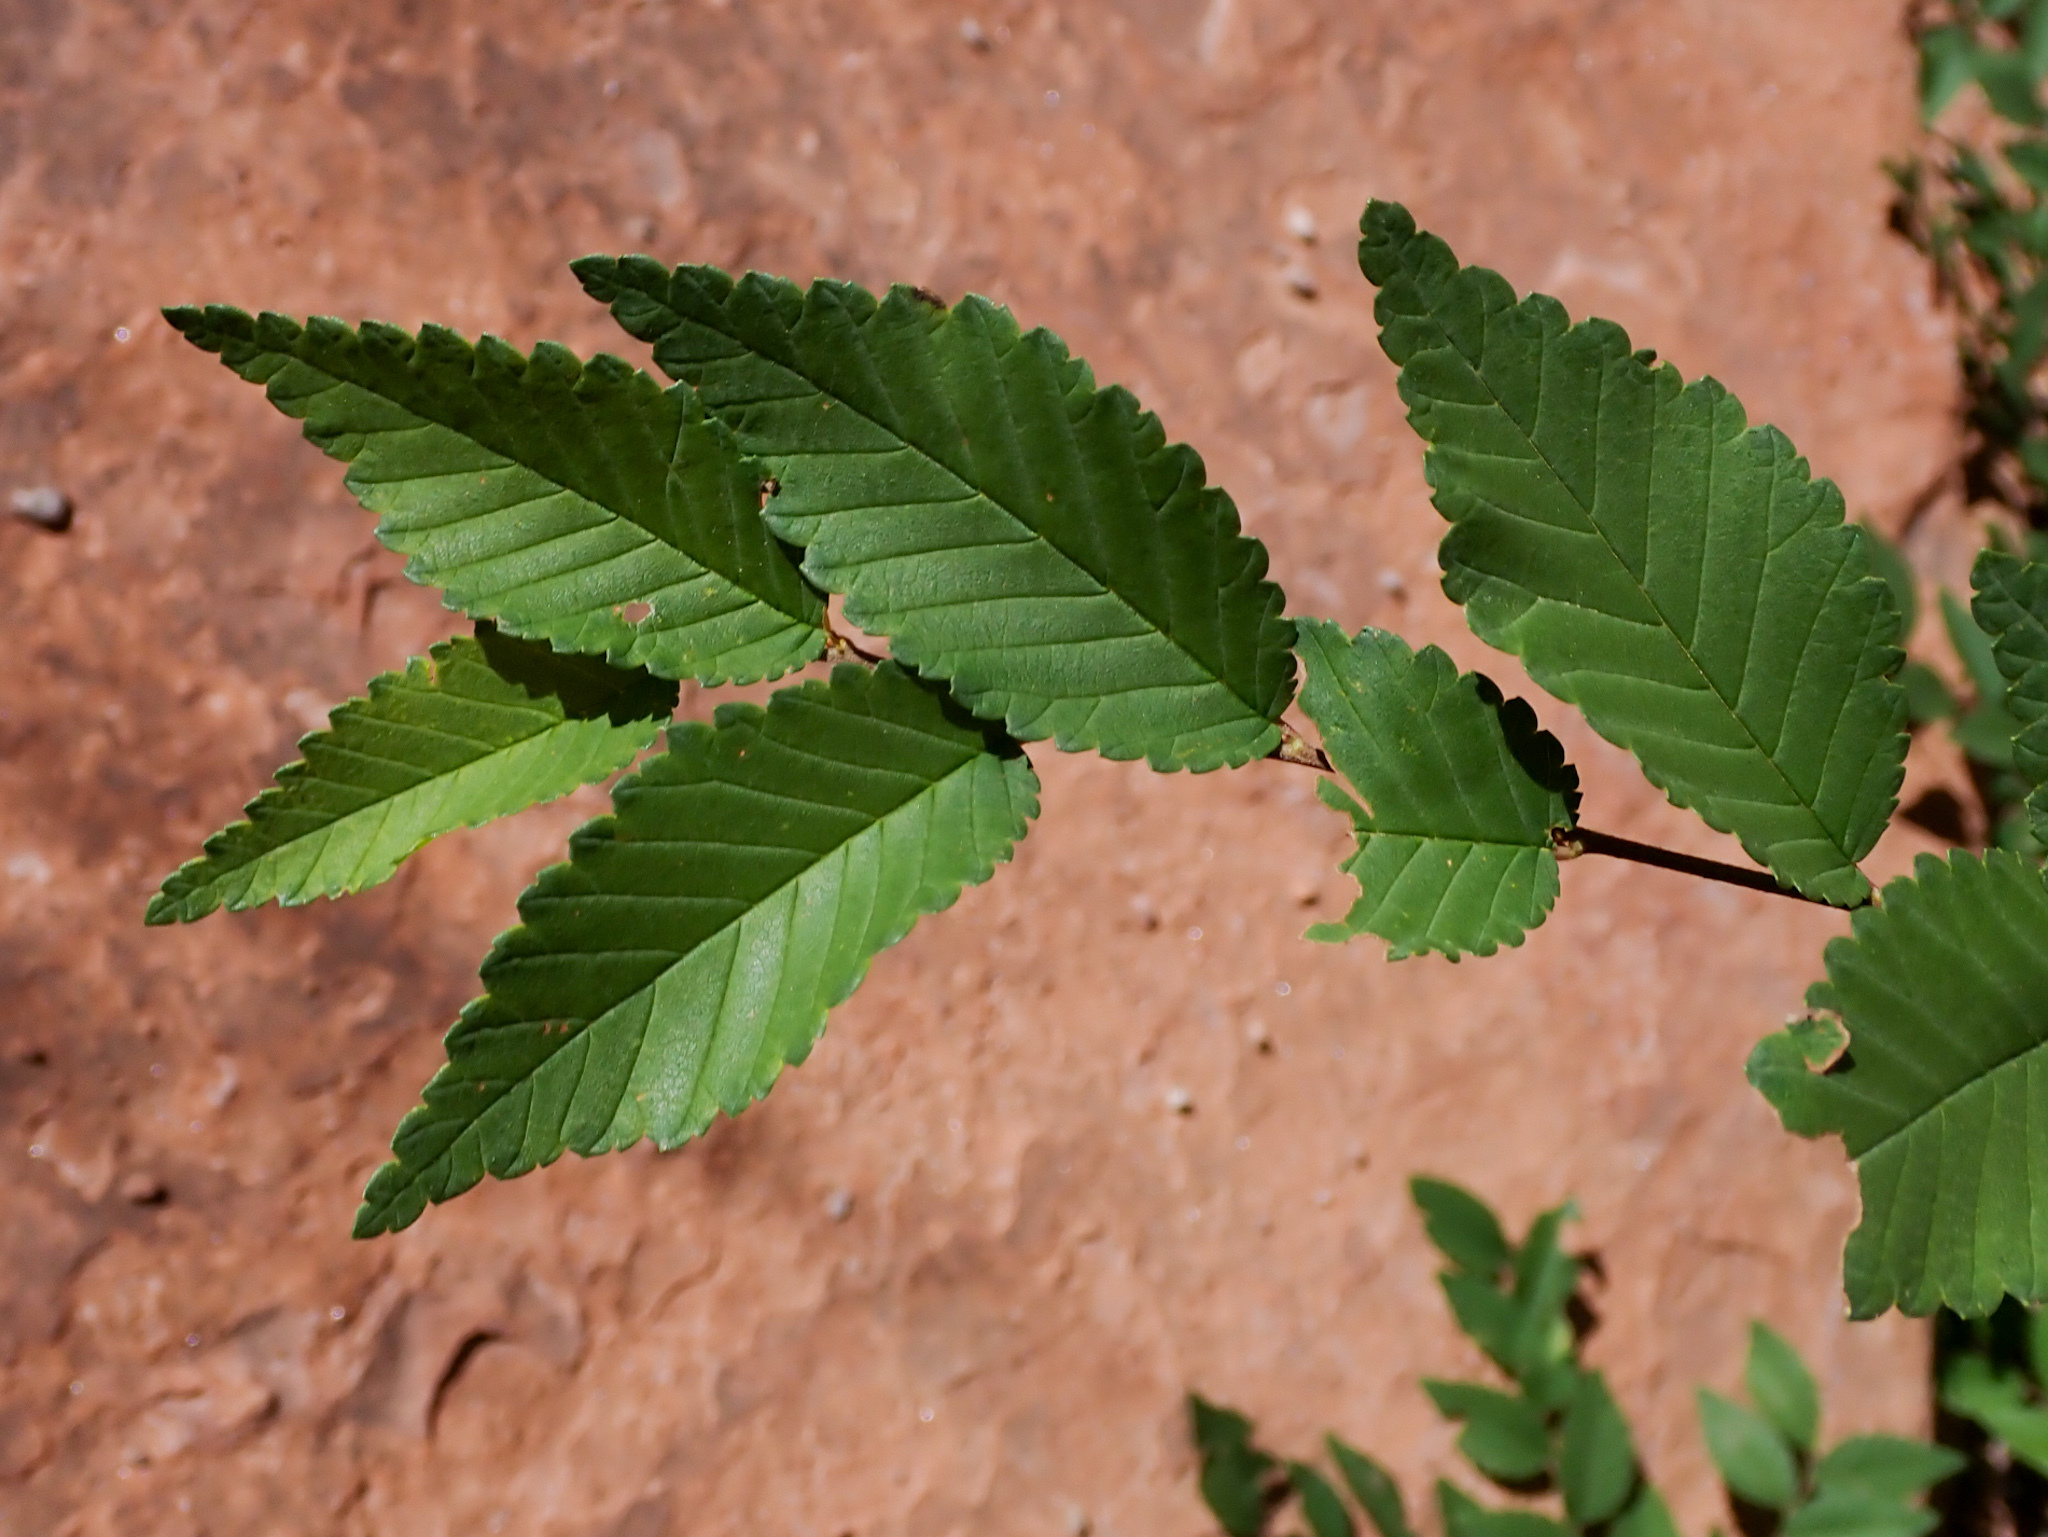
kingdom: Plantae
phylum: Tracheophyta
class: Magnoliopsida
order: Rosales
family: Ulmaceae
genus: Ulmus
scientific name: Ulmus pumila
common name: Siberian elm
